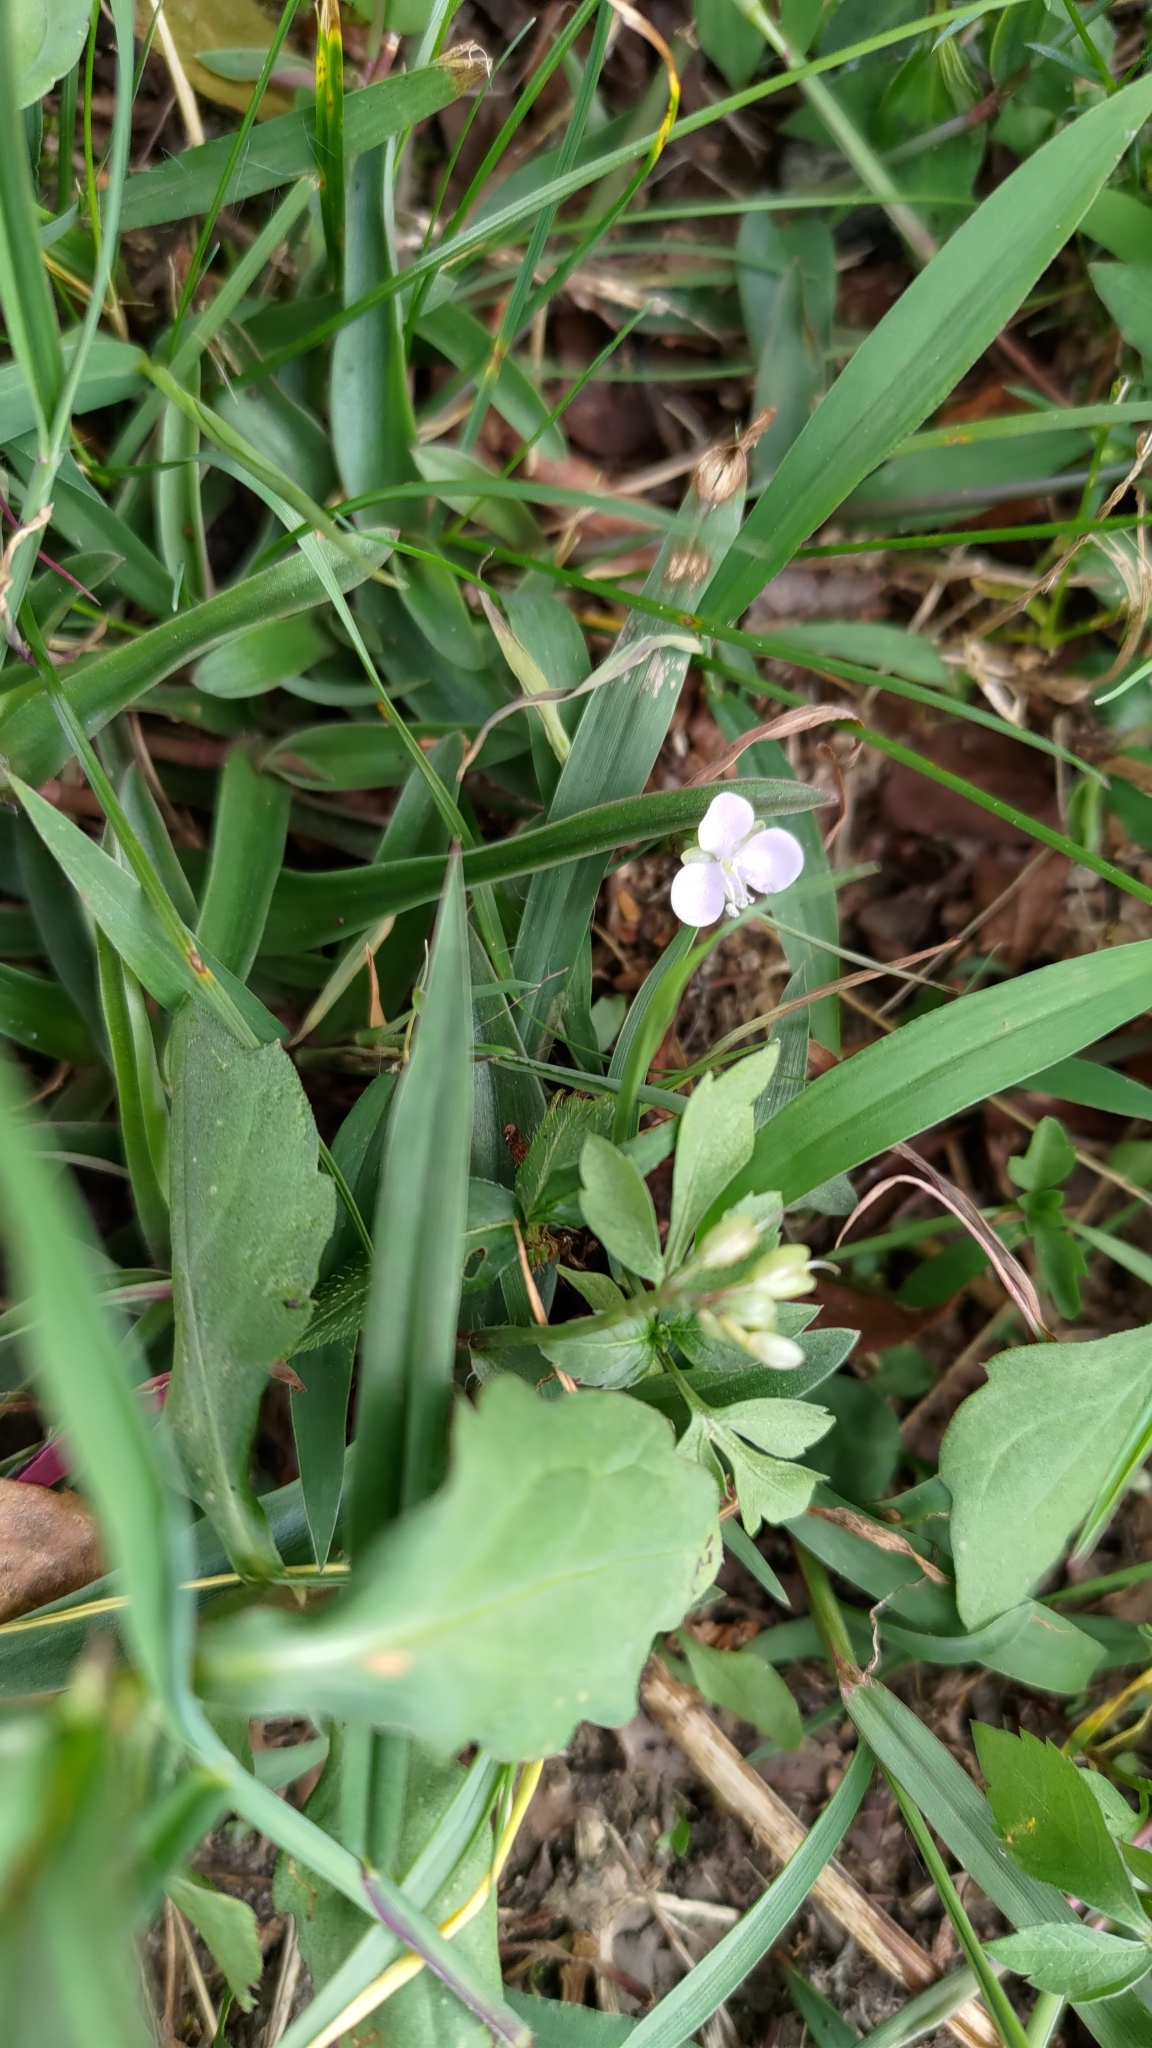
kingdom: Plantae
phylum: Tracheophyta
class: Liliopsida
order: Commelinales
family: Commelinaceae
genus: Murdannia
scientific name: Murdannia loriformis
